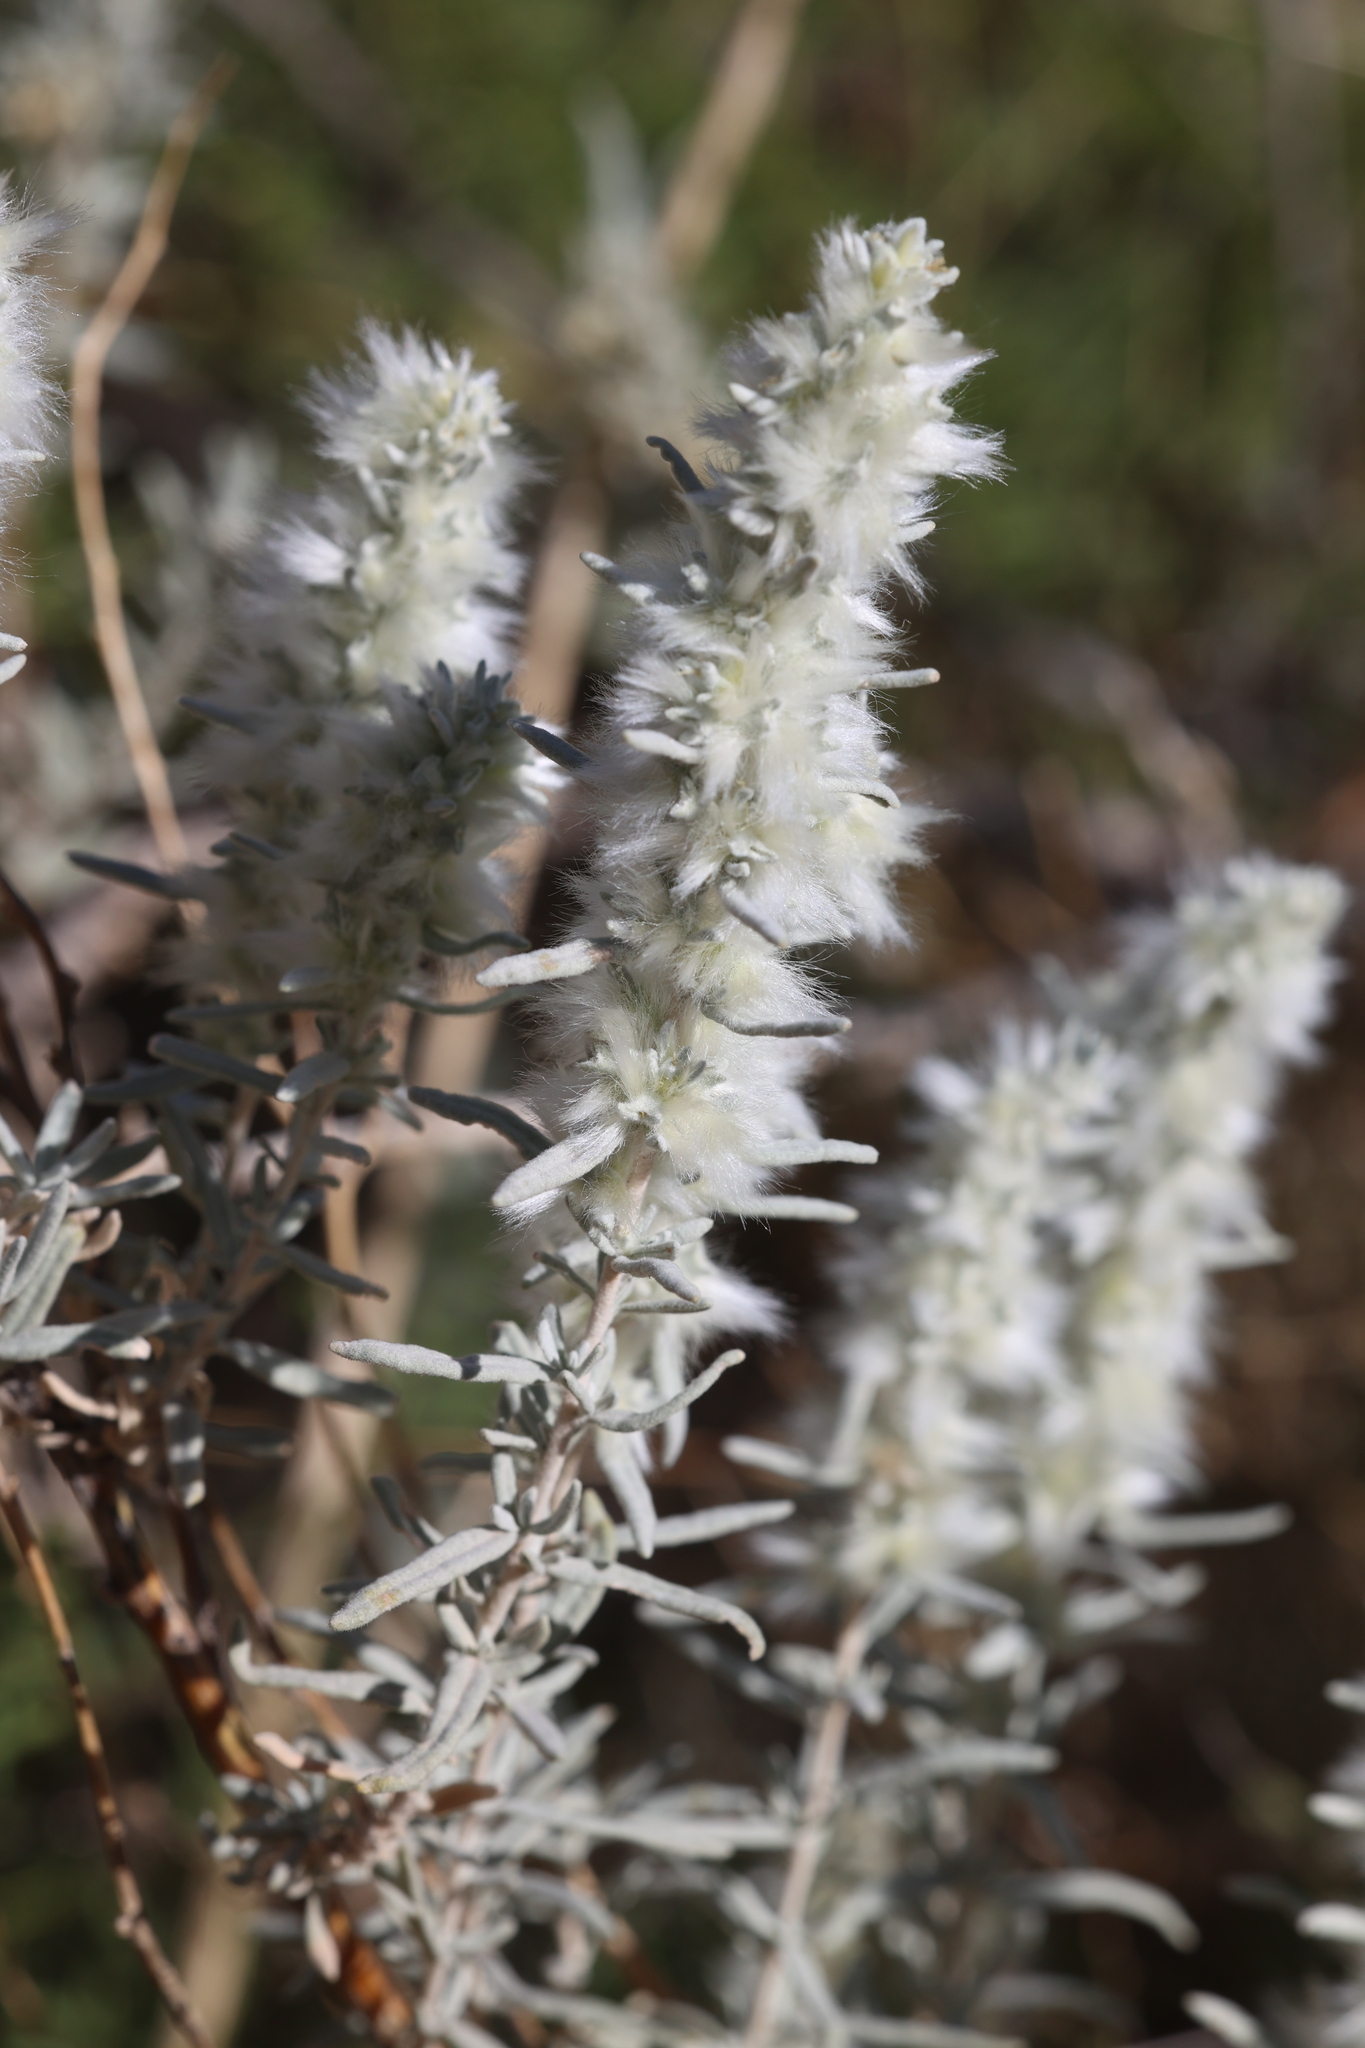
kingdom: Plantae
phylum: Tracheophyta
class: Magnoliopsida
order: Caryophyllales
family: Amaranthaceae
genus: Krascheninnikovia
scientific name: Krascheninnikovia lanata
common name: Winterfat
